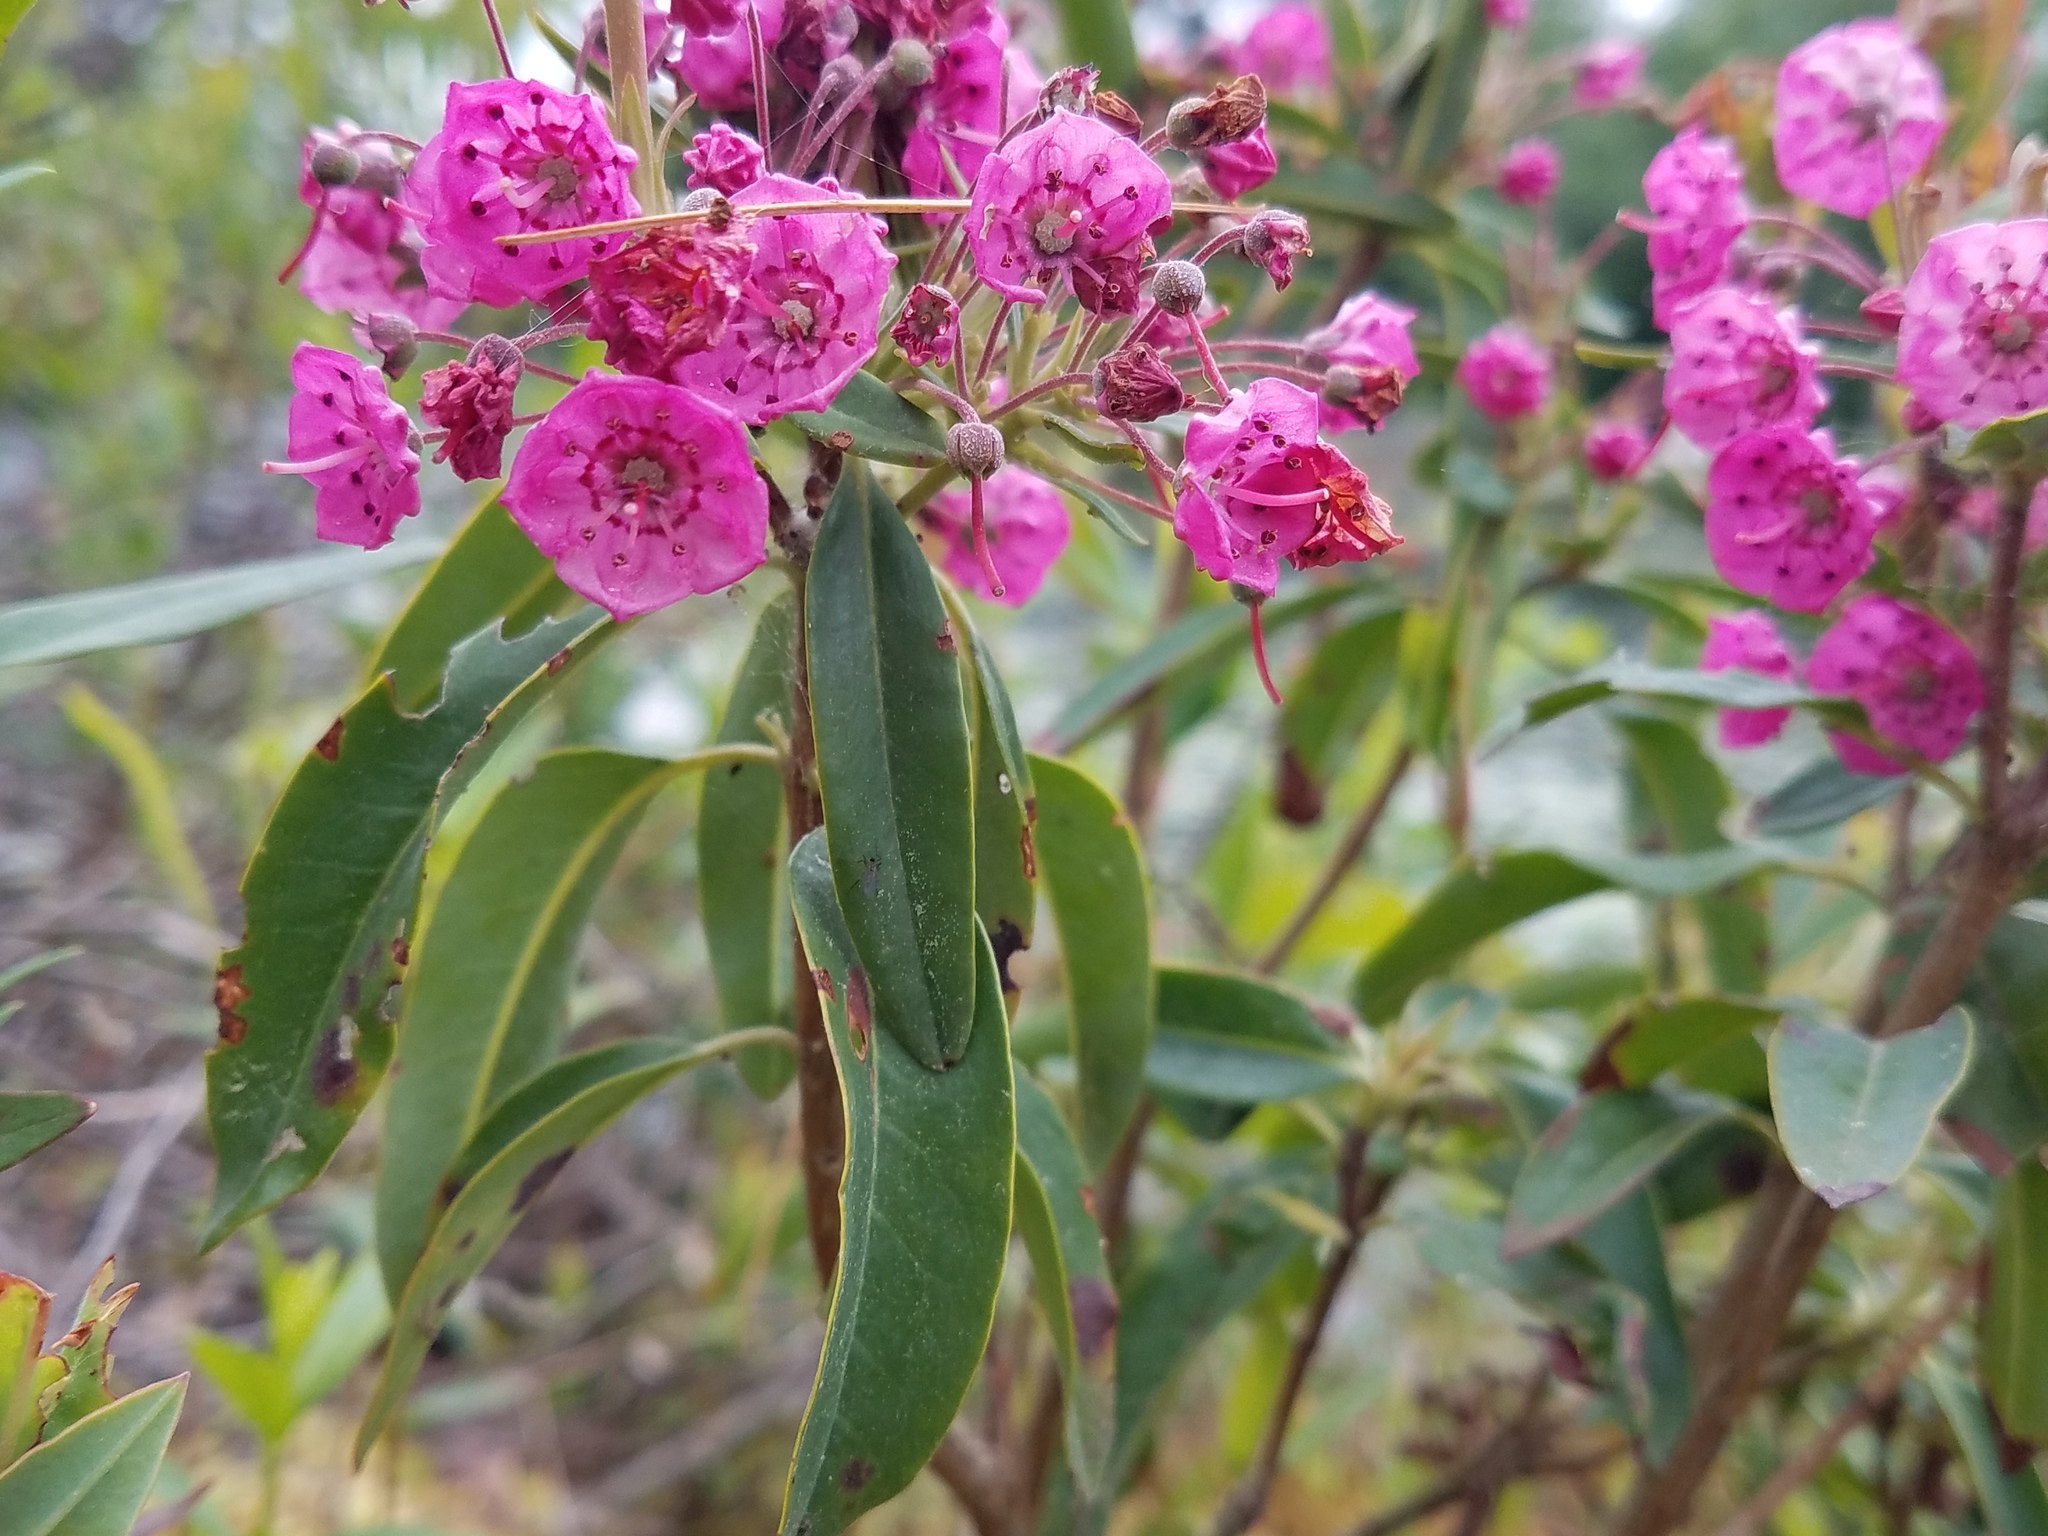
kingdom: Plantae
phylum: Tracheophyta
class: Magnoliopsida
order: Ericales
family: Ericaceae
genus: Kalmia
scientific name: Kalmia angustifolia
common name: Sheep-laurel
